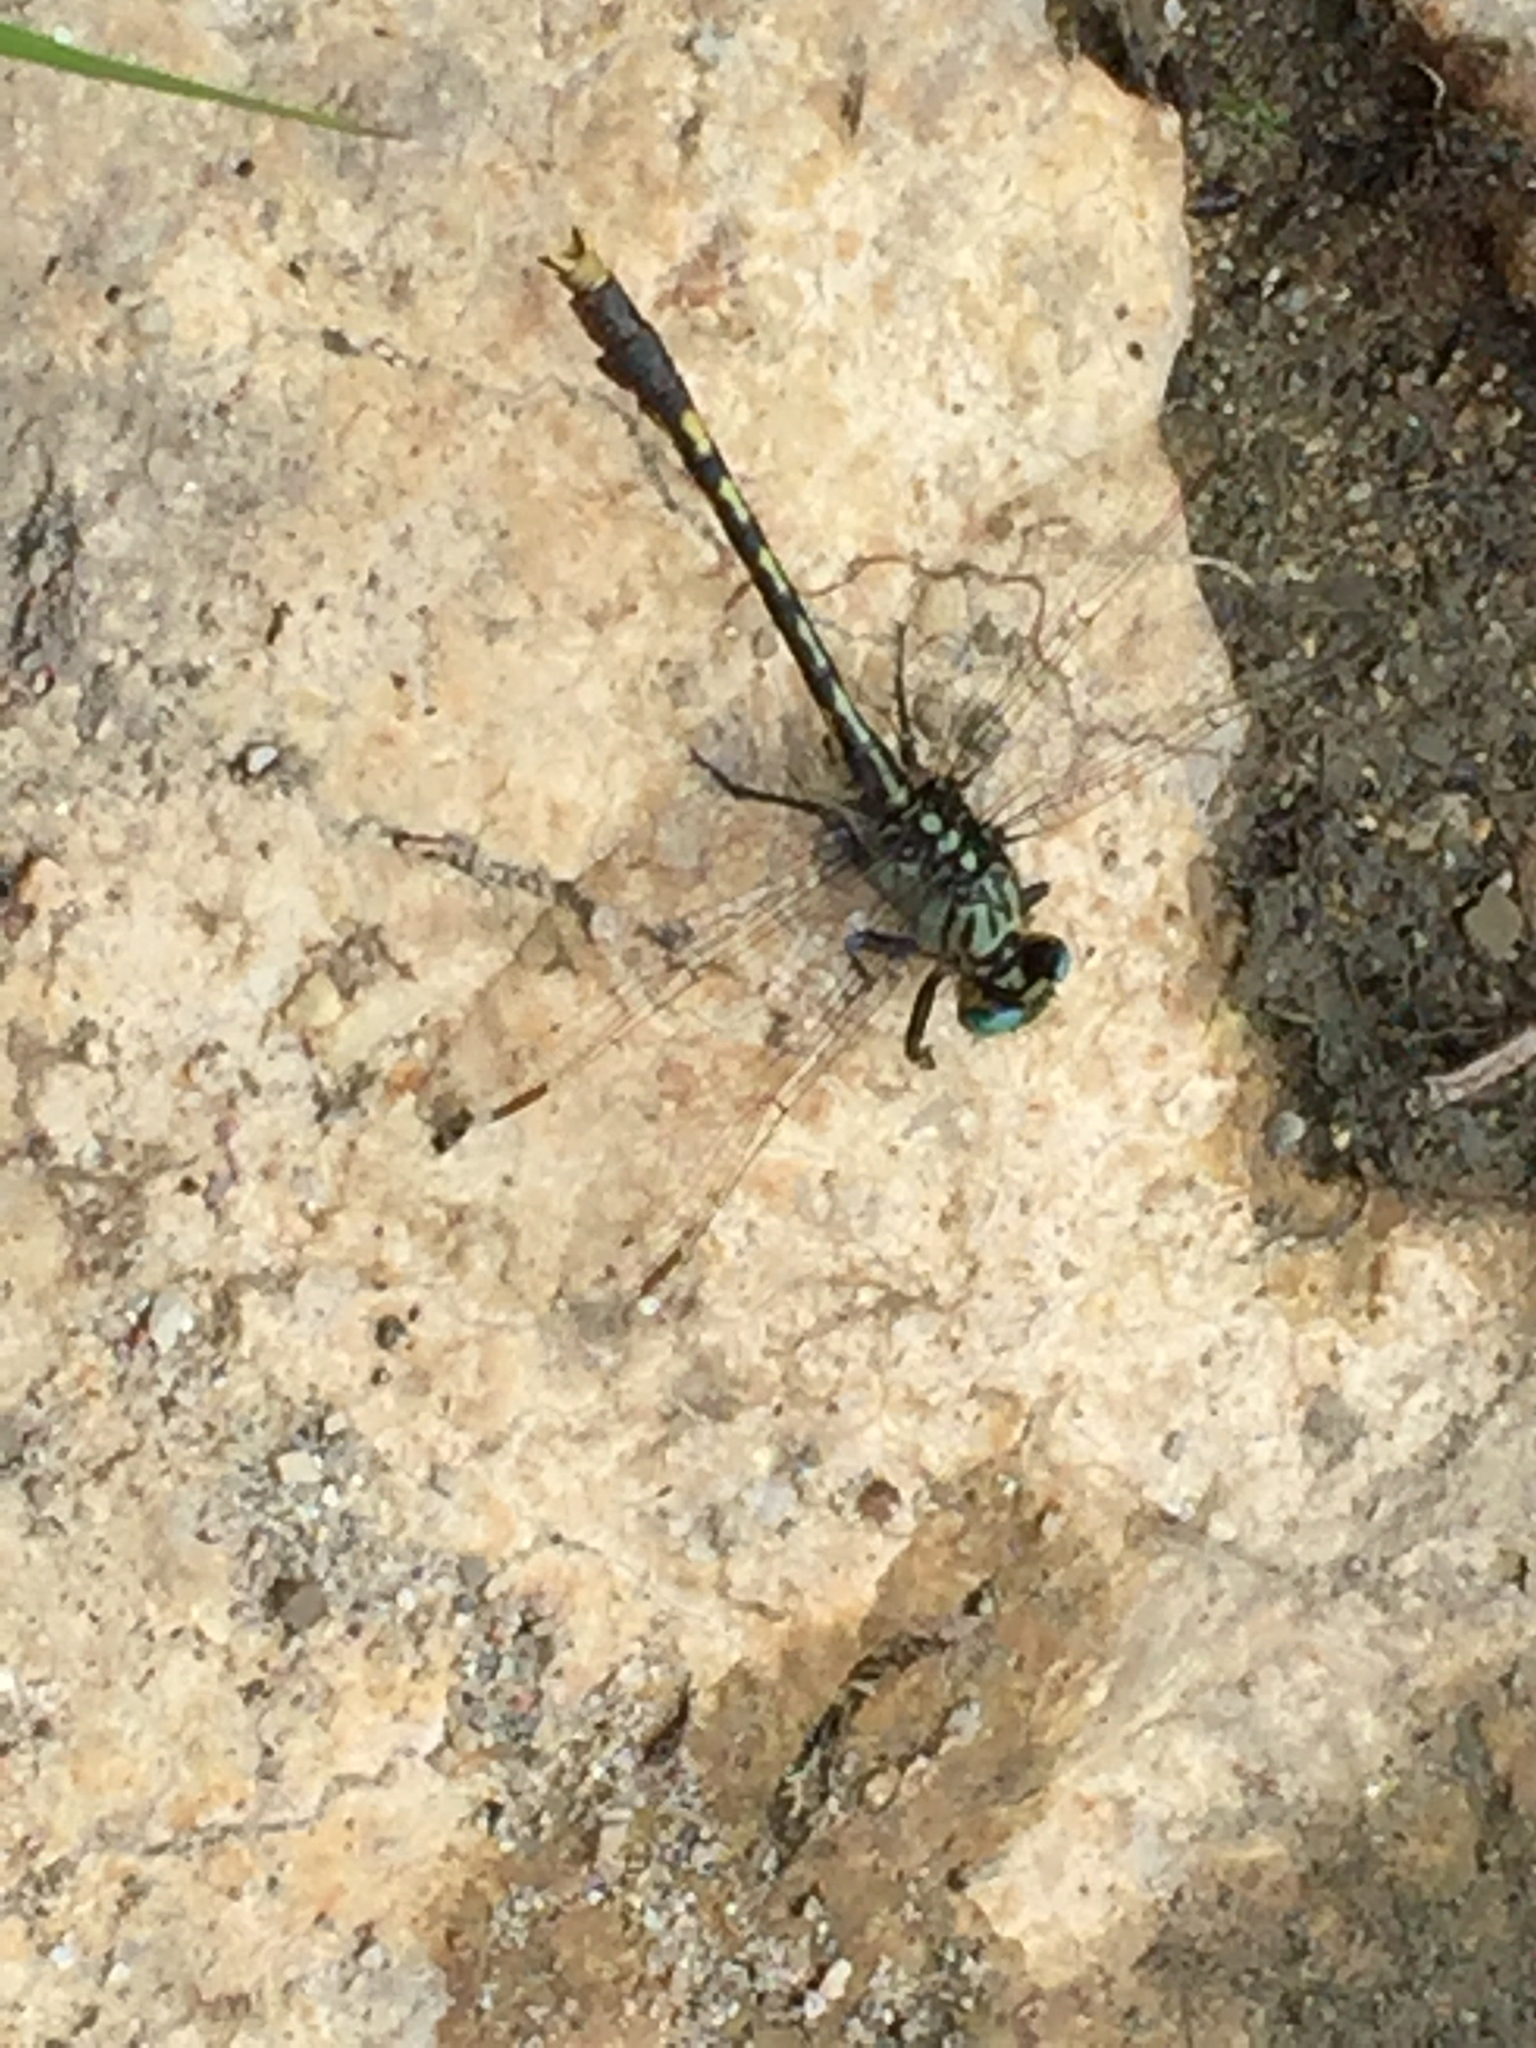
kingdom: Animalia
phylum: Arthropoda
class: Insecta
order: Odonata
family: Gomphidae
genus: Arigomphus
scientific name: Arigomphus villosipes
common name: Unicorn clubtail
